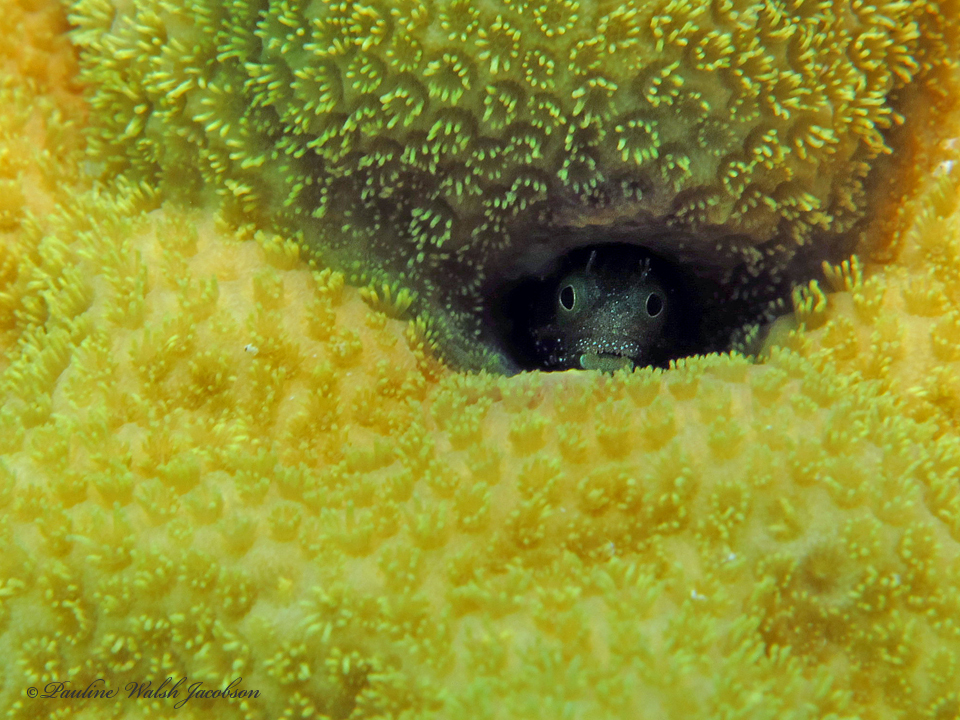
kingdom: Animalia
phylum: Chordata
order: Perciformes
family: Chaenopsidae
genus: Acanthemblemaria
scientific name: Acanthemblemaria spinosa
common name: Spinyhead blenny
